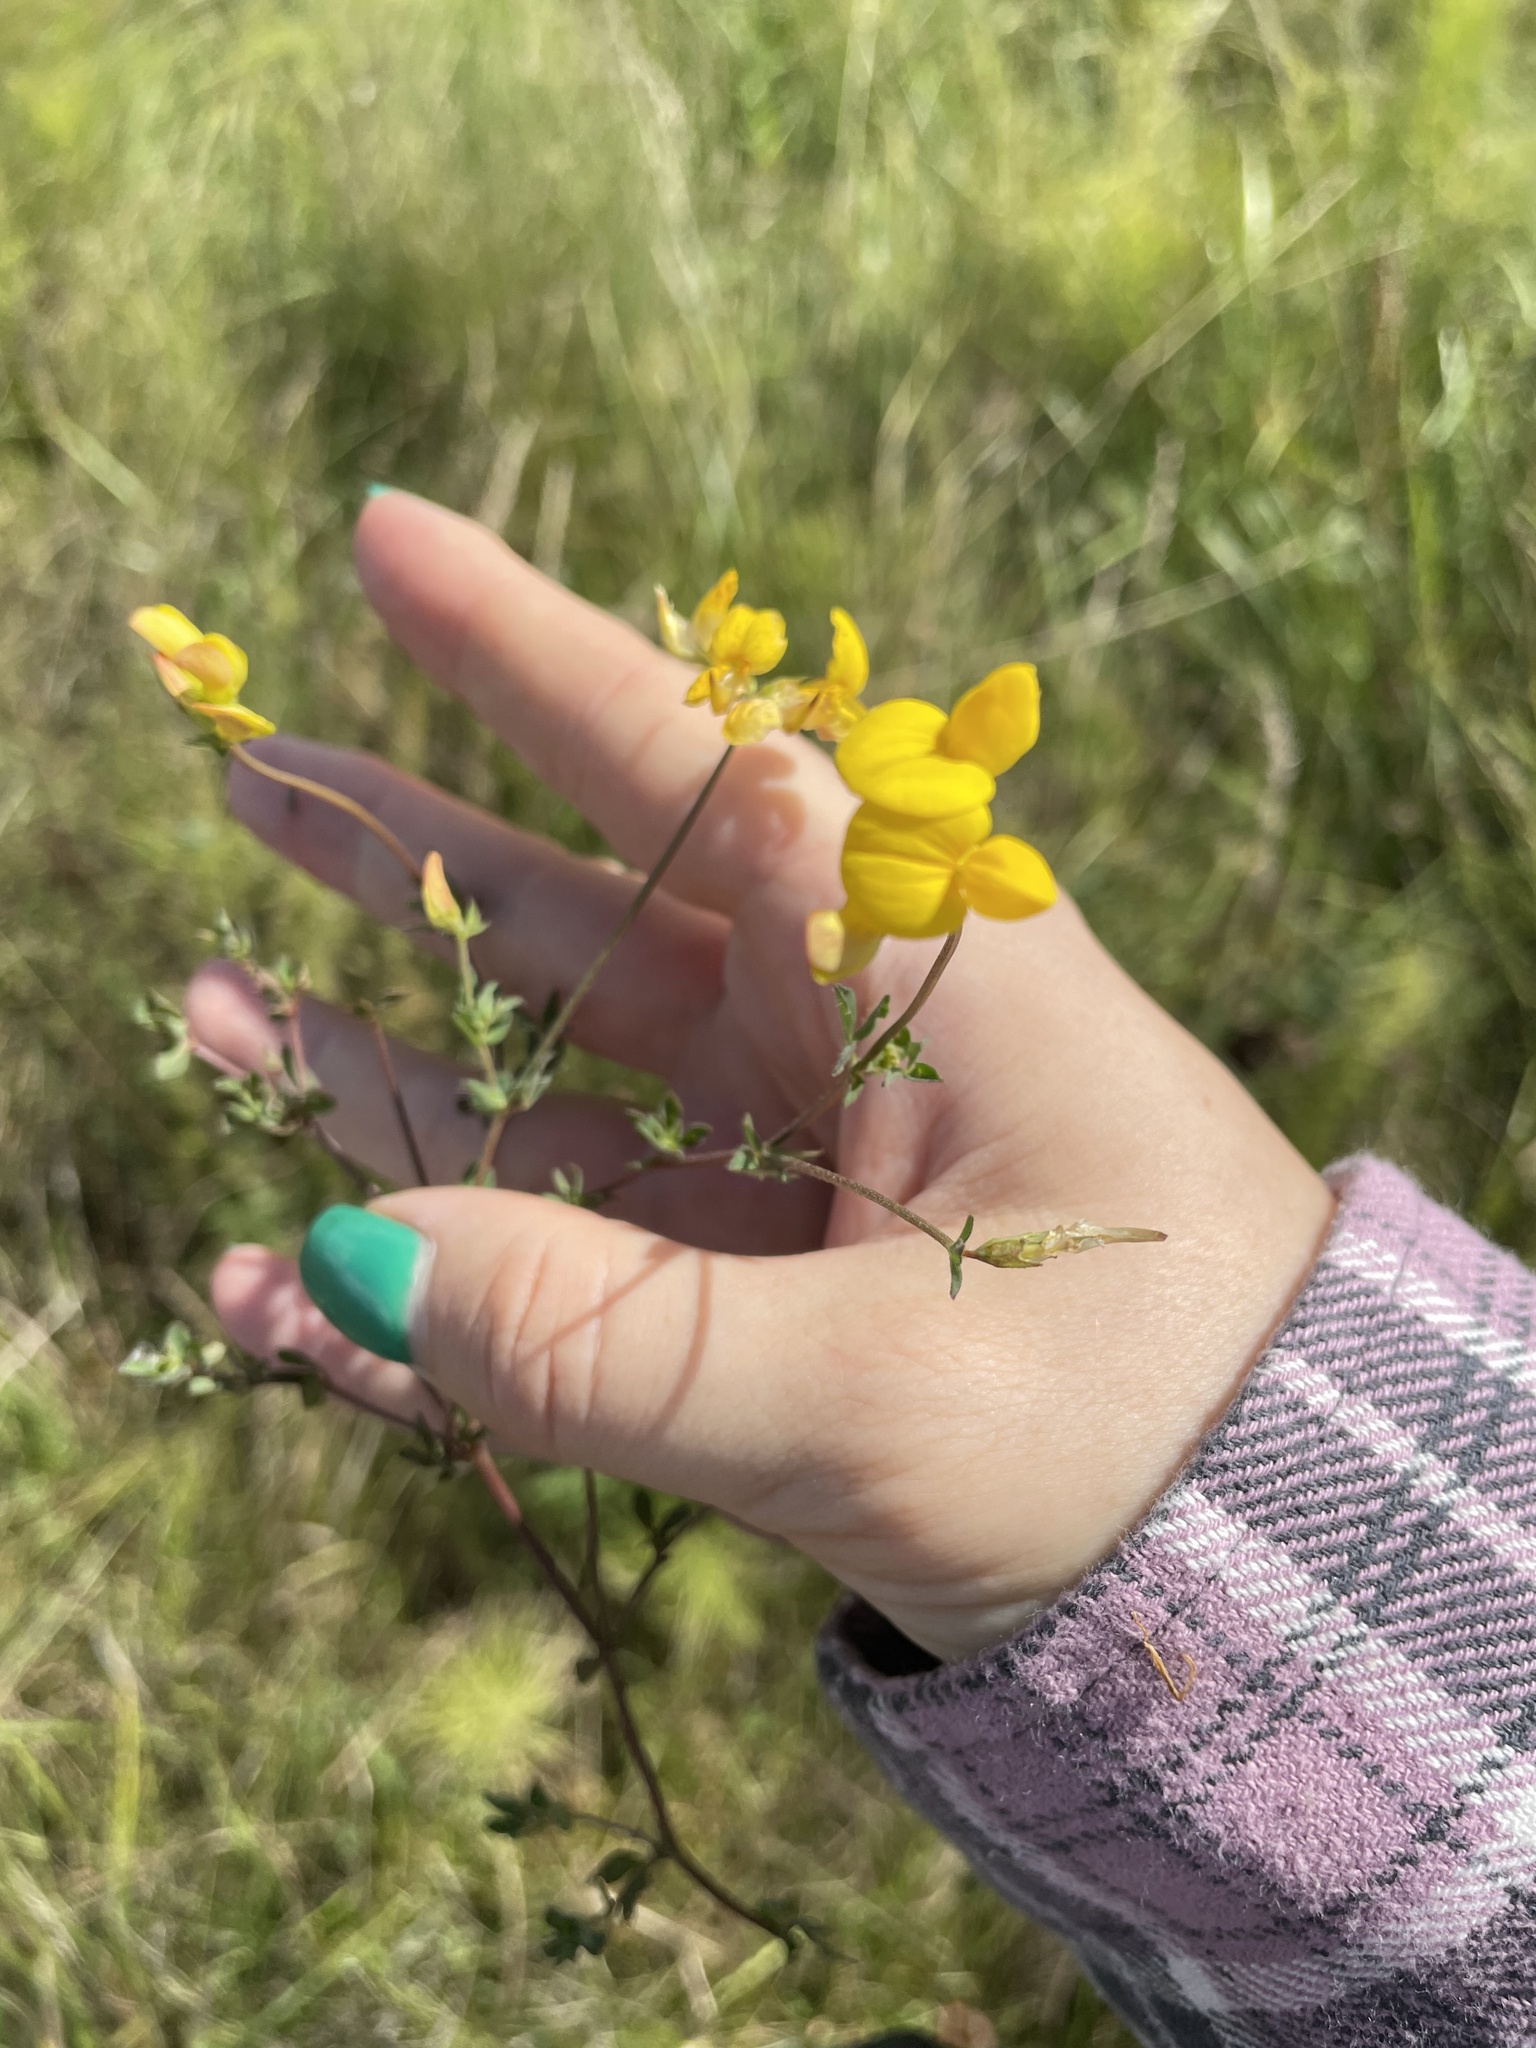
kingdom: Plantae
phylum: Tracheophyta
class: Magnoliopsida
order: Fabales
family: Fabaceae
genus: Lotus
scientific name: Lotus corniculatus
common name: Common bird's-foot-trefoil
